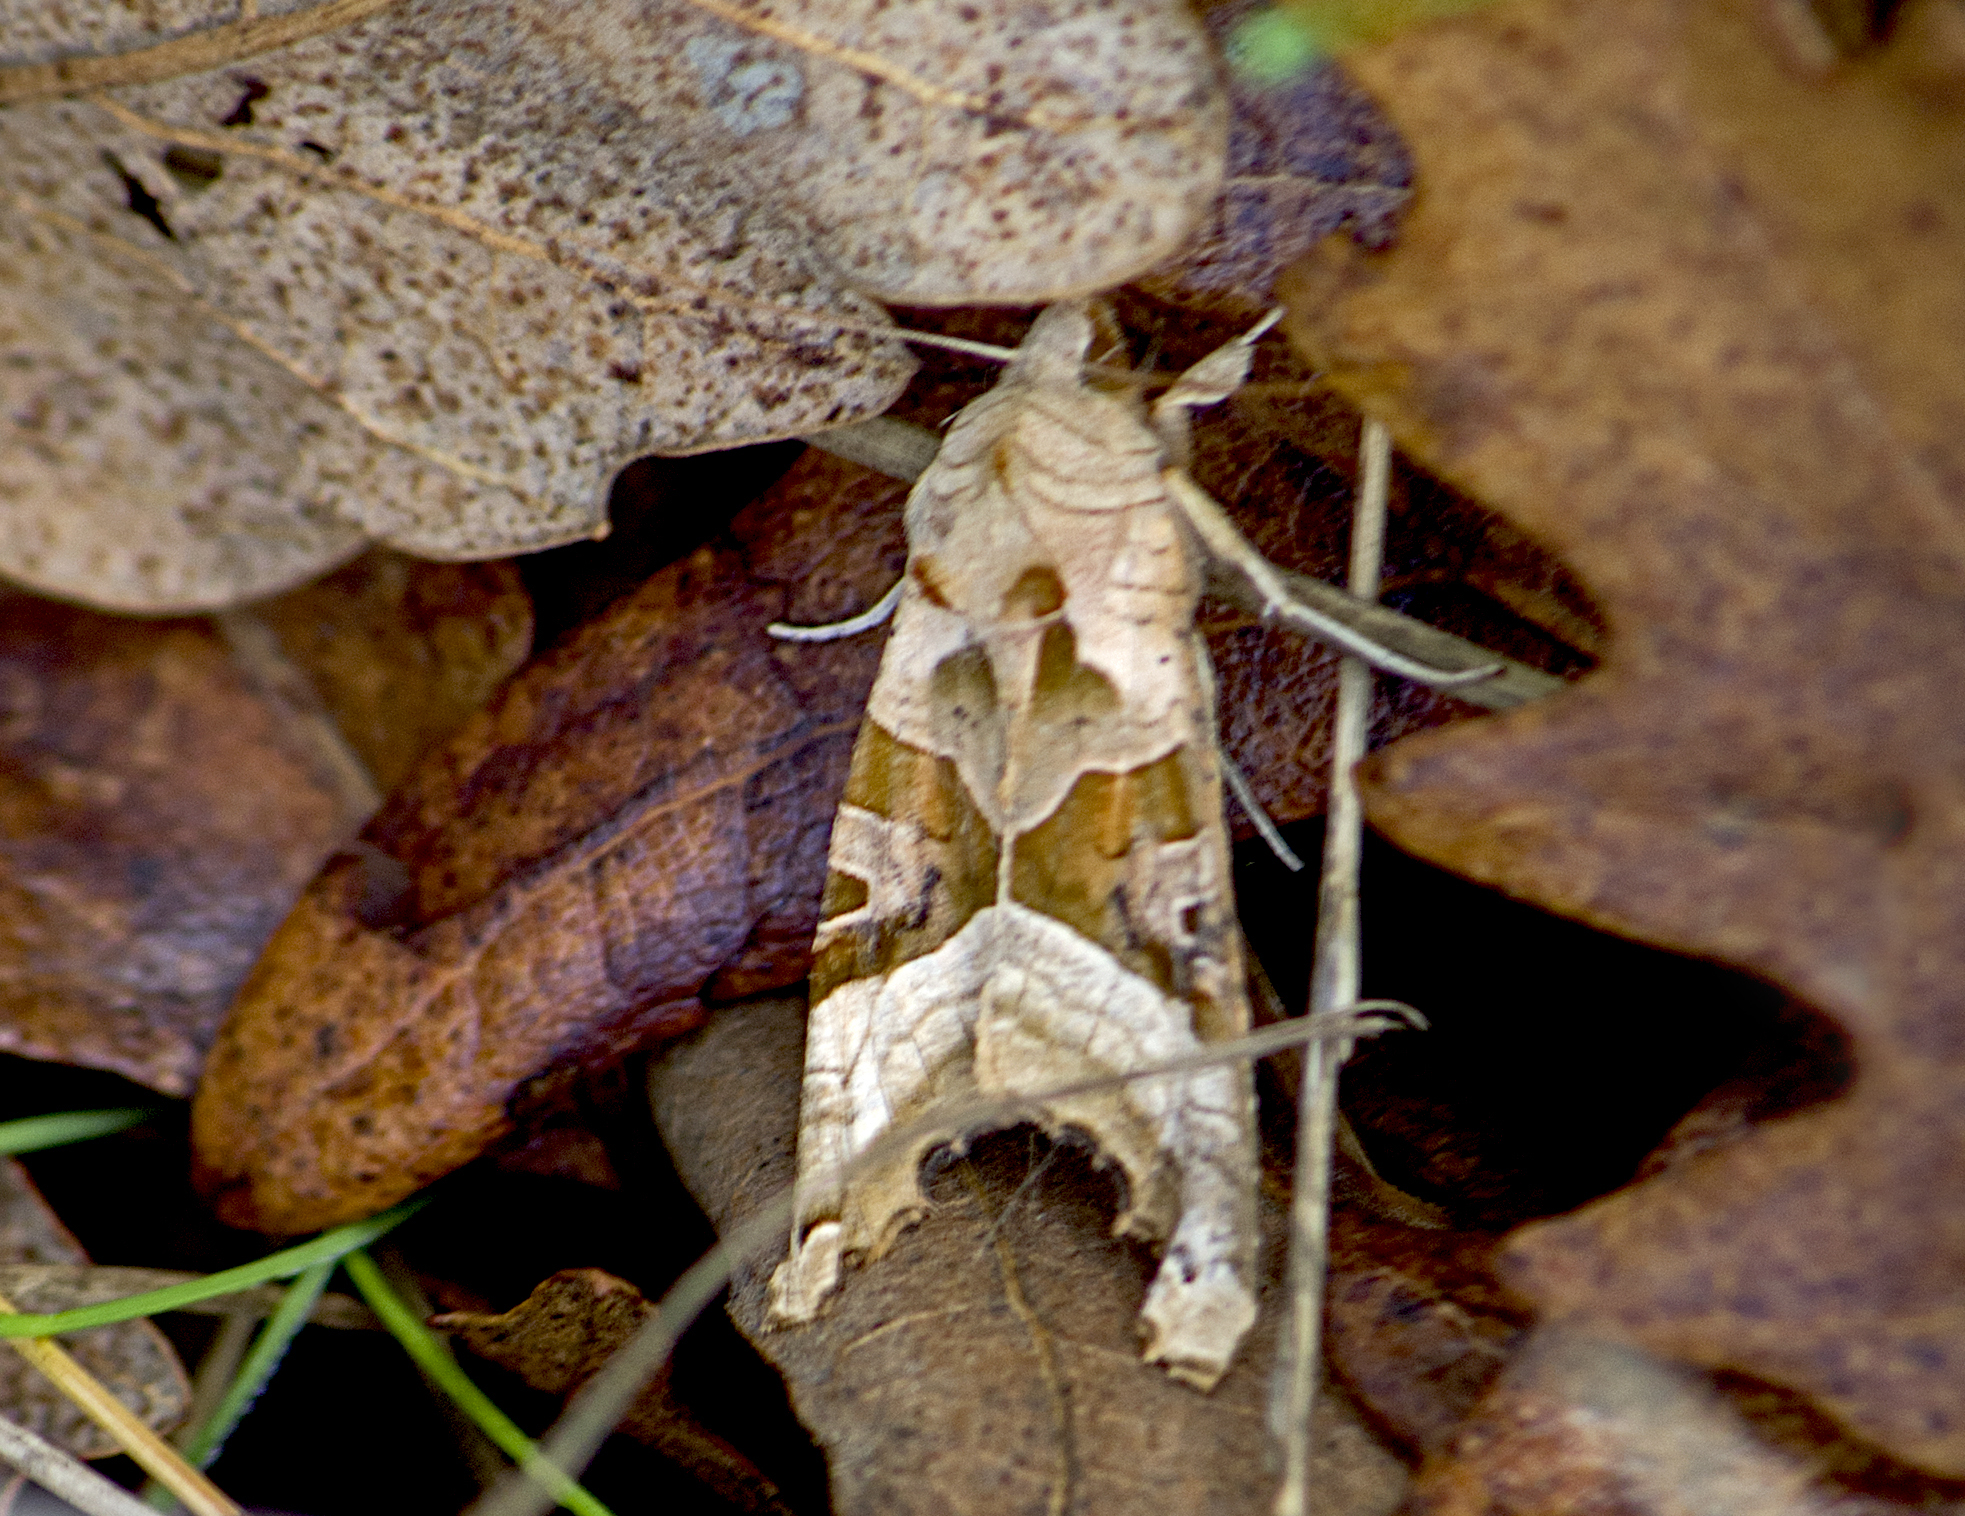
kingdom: Animalia
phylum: Arthropoda
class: Insecta
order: Lepidoptera
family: Noctuidae
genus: Phlogophora
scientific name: Phlogophora meticulosa
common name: Angle shades
